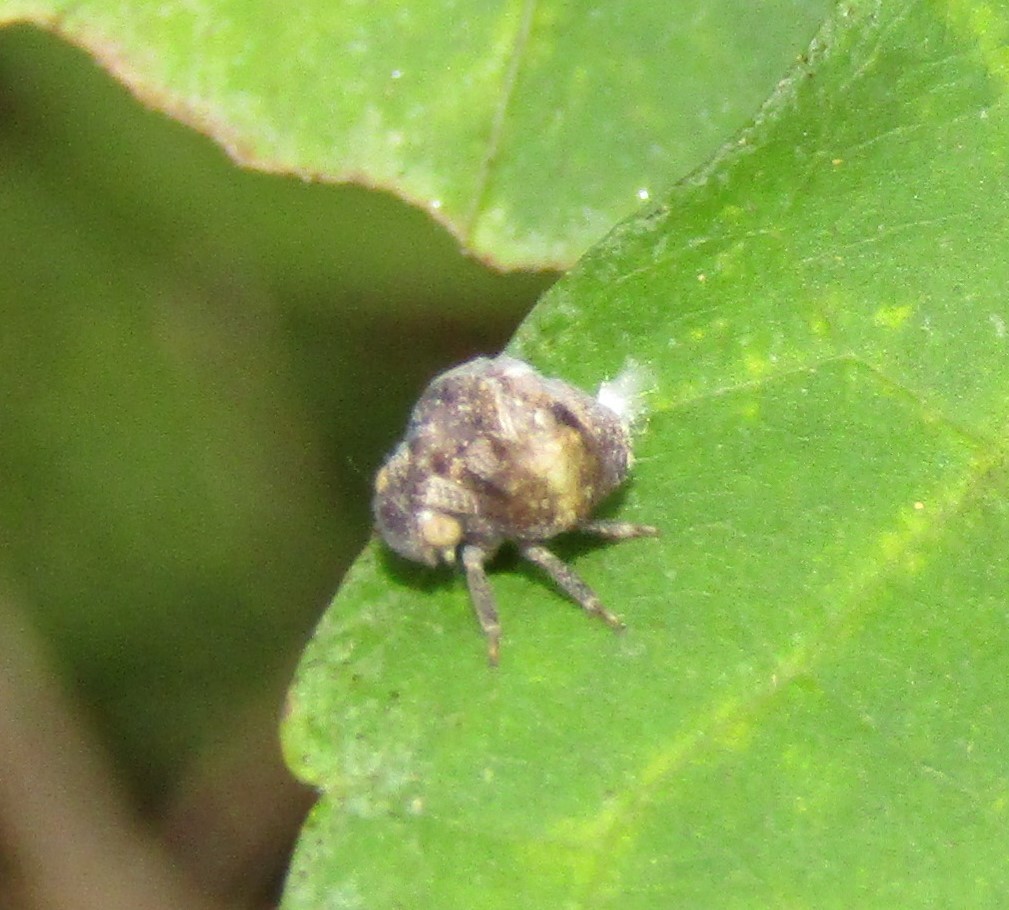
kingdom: Animalia
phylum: Arthropoda
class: Insecta
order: Hemiptera
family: Acanaloniidae
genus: Acanalonia
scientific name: Acanalonia conica
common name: Green cone-headed planthopper
